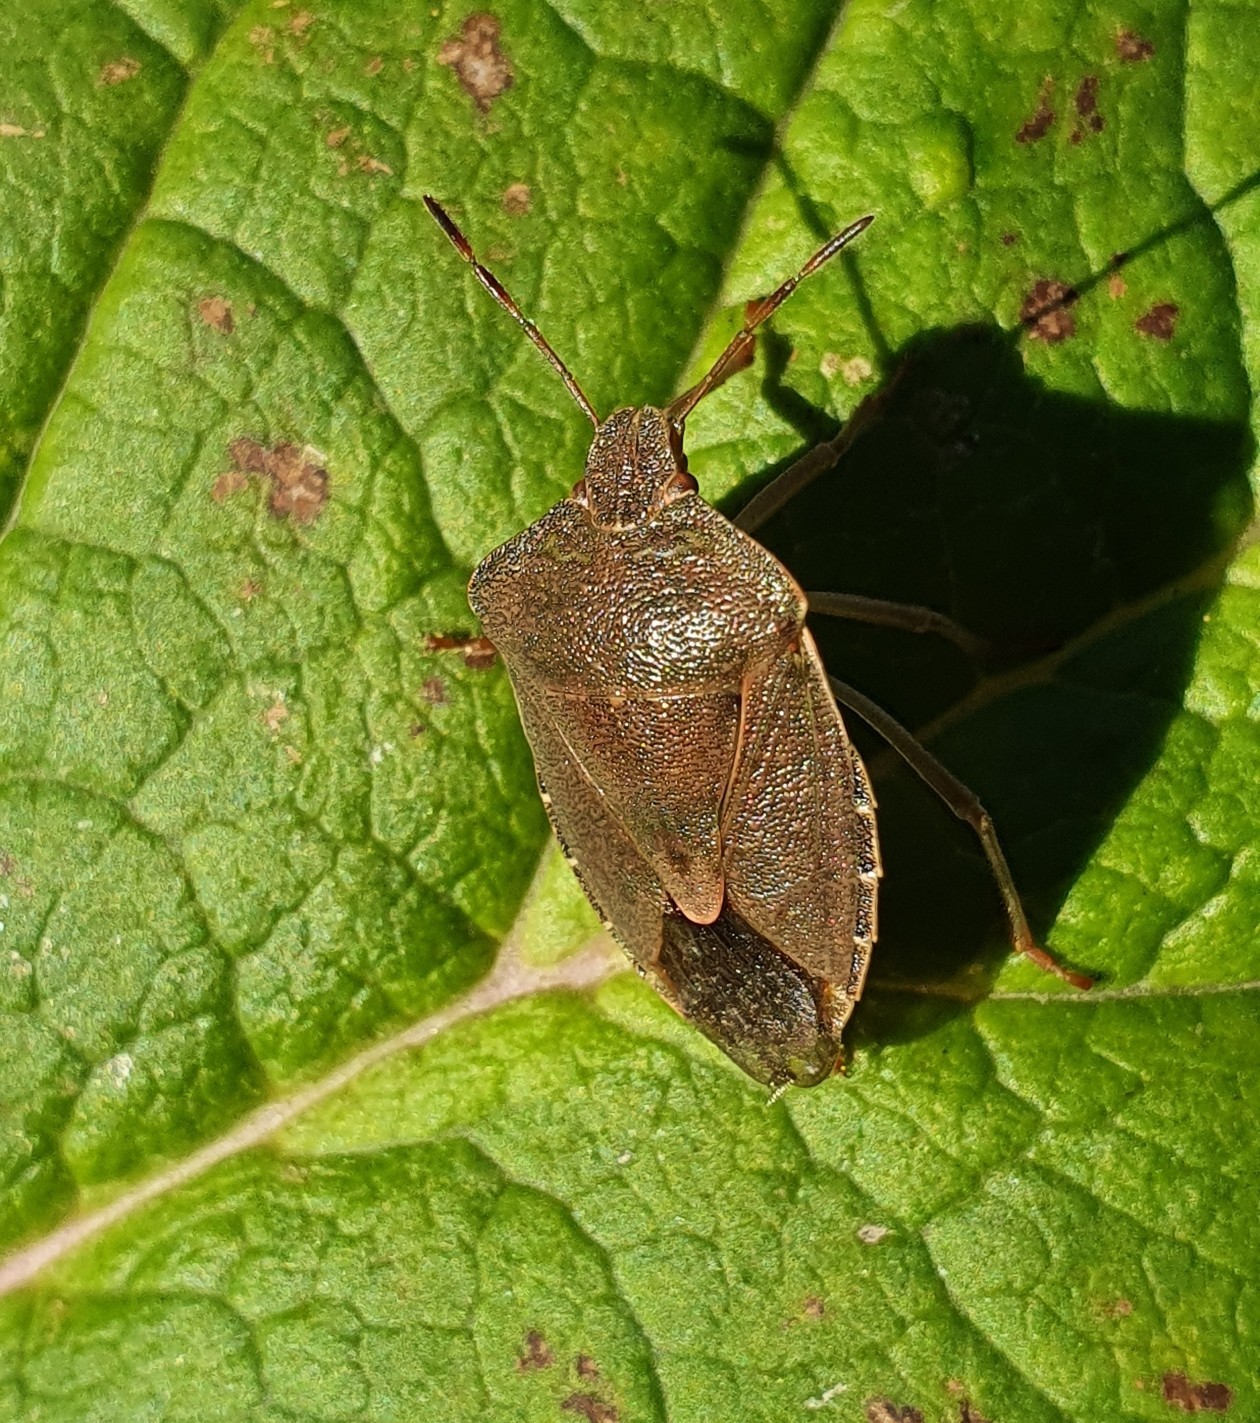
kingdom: Animalia
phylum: Arthropoda
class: Insecta
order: Hemiptera
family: Pentatomidae
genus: Palomena
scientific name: Palomena prasina
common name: Green shieldbug
